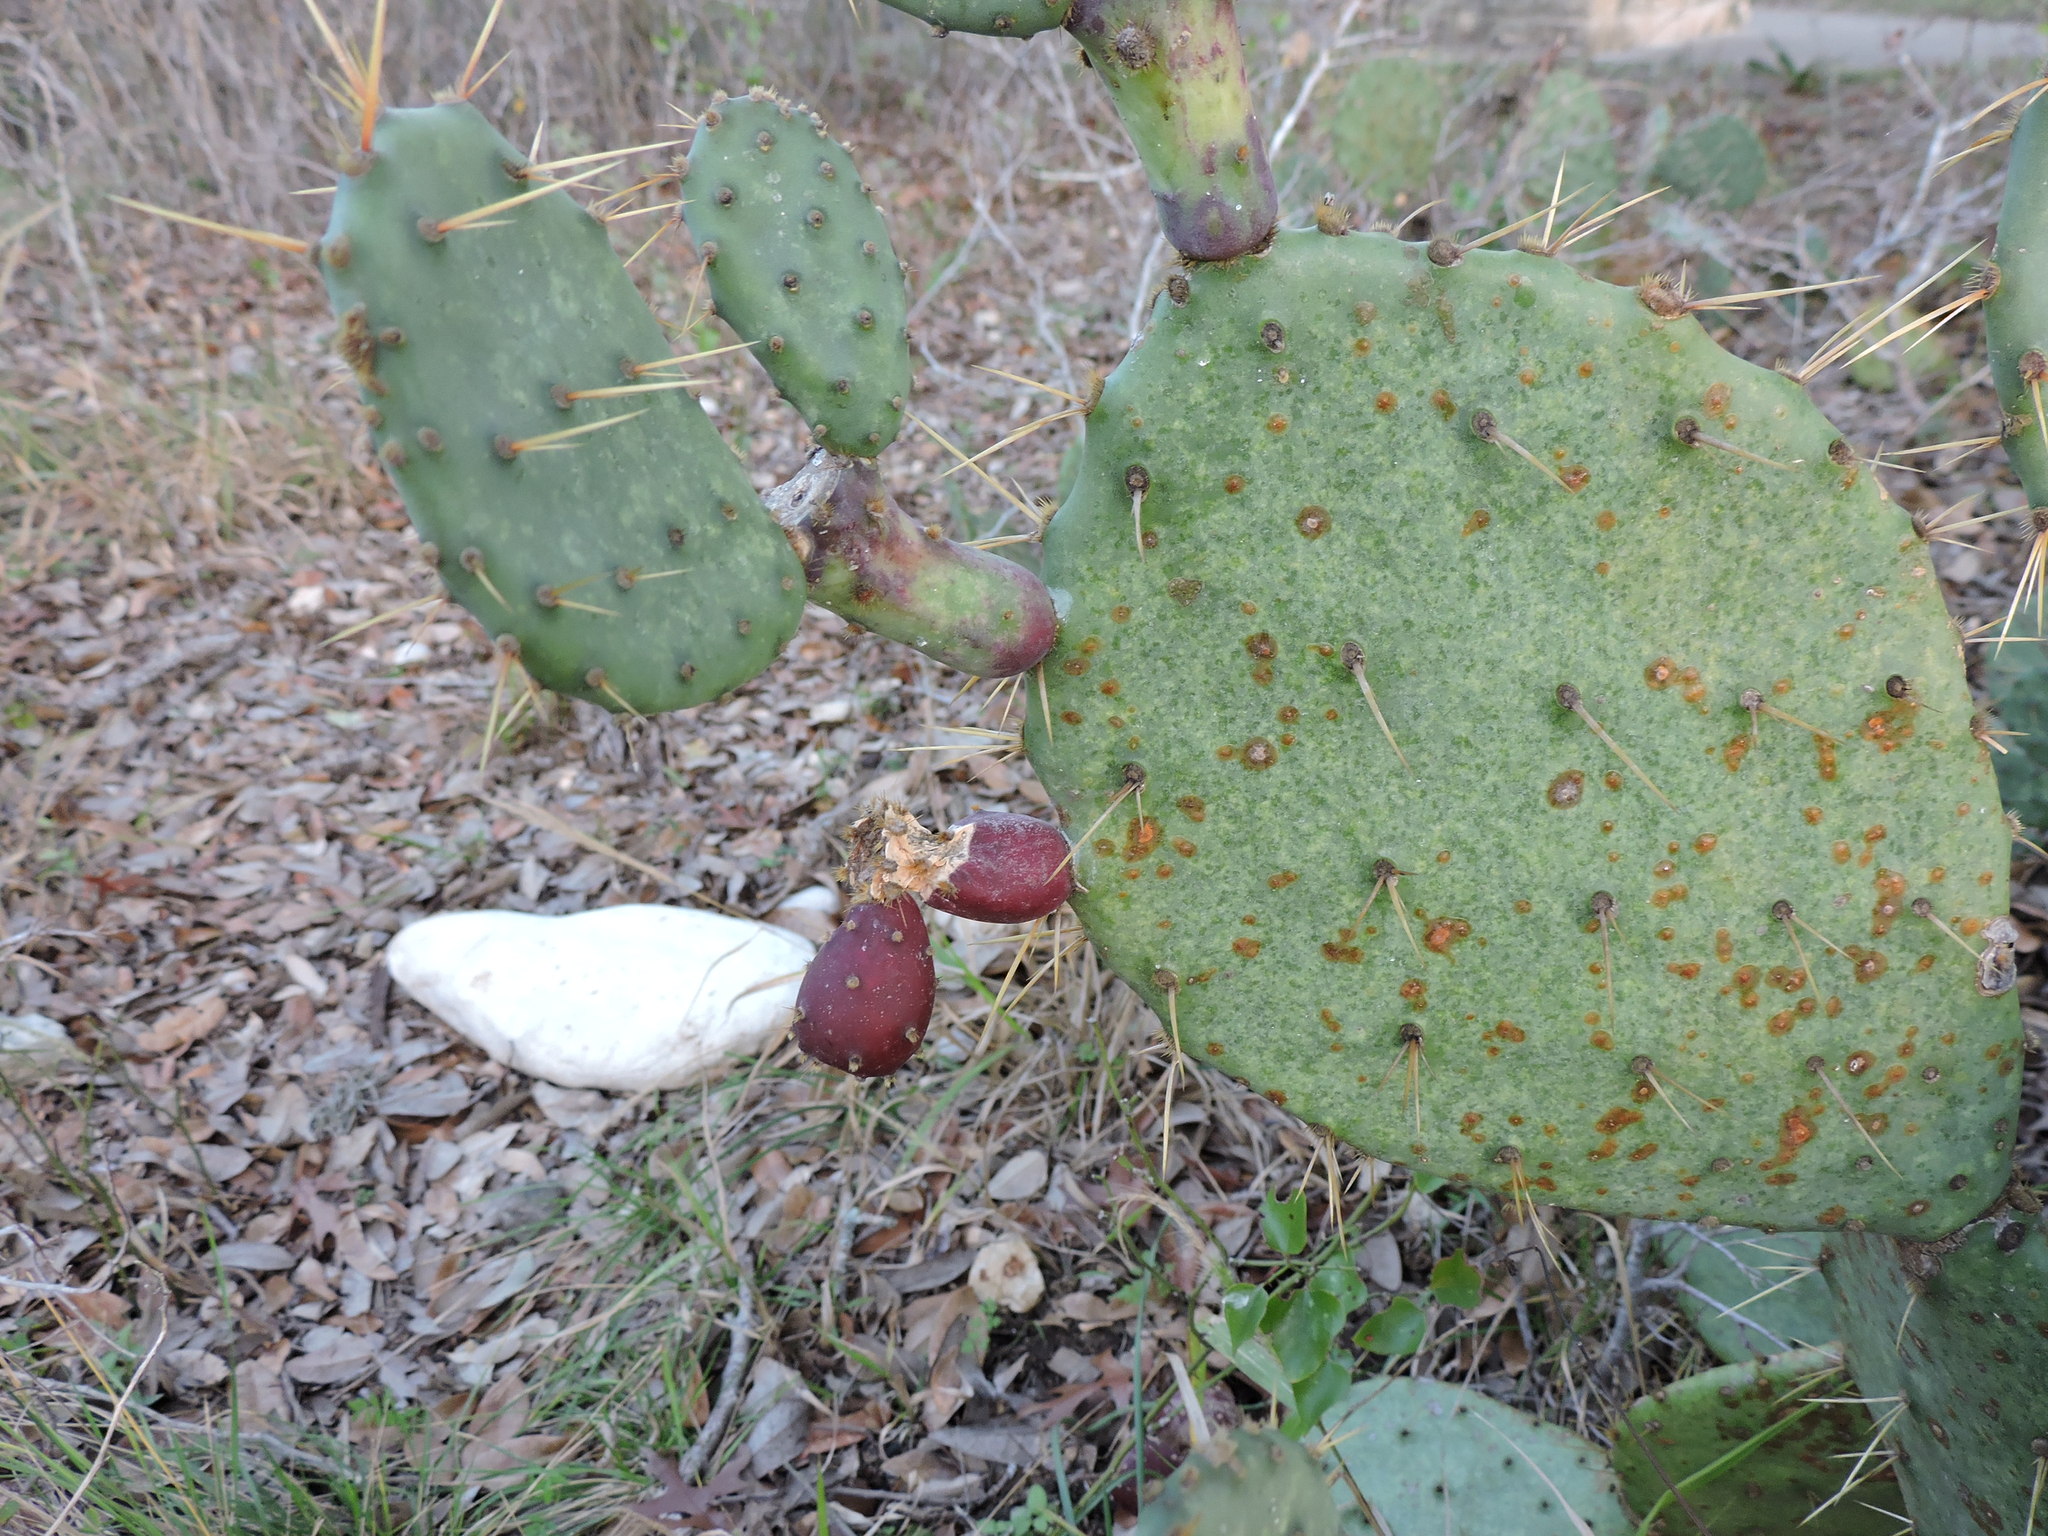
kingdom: Plantae
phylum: Tracheophyta
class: Magnoliopsida
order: Caryophyllales
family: Cactaceae
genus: Opuntia
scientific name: Opuntia engelmannii
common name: Cactus-apple
